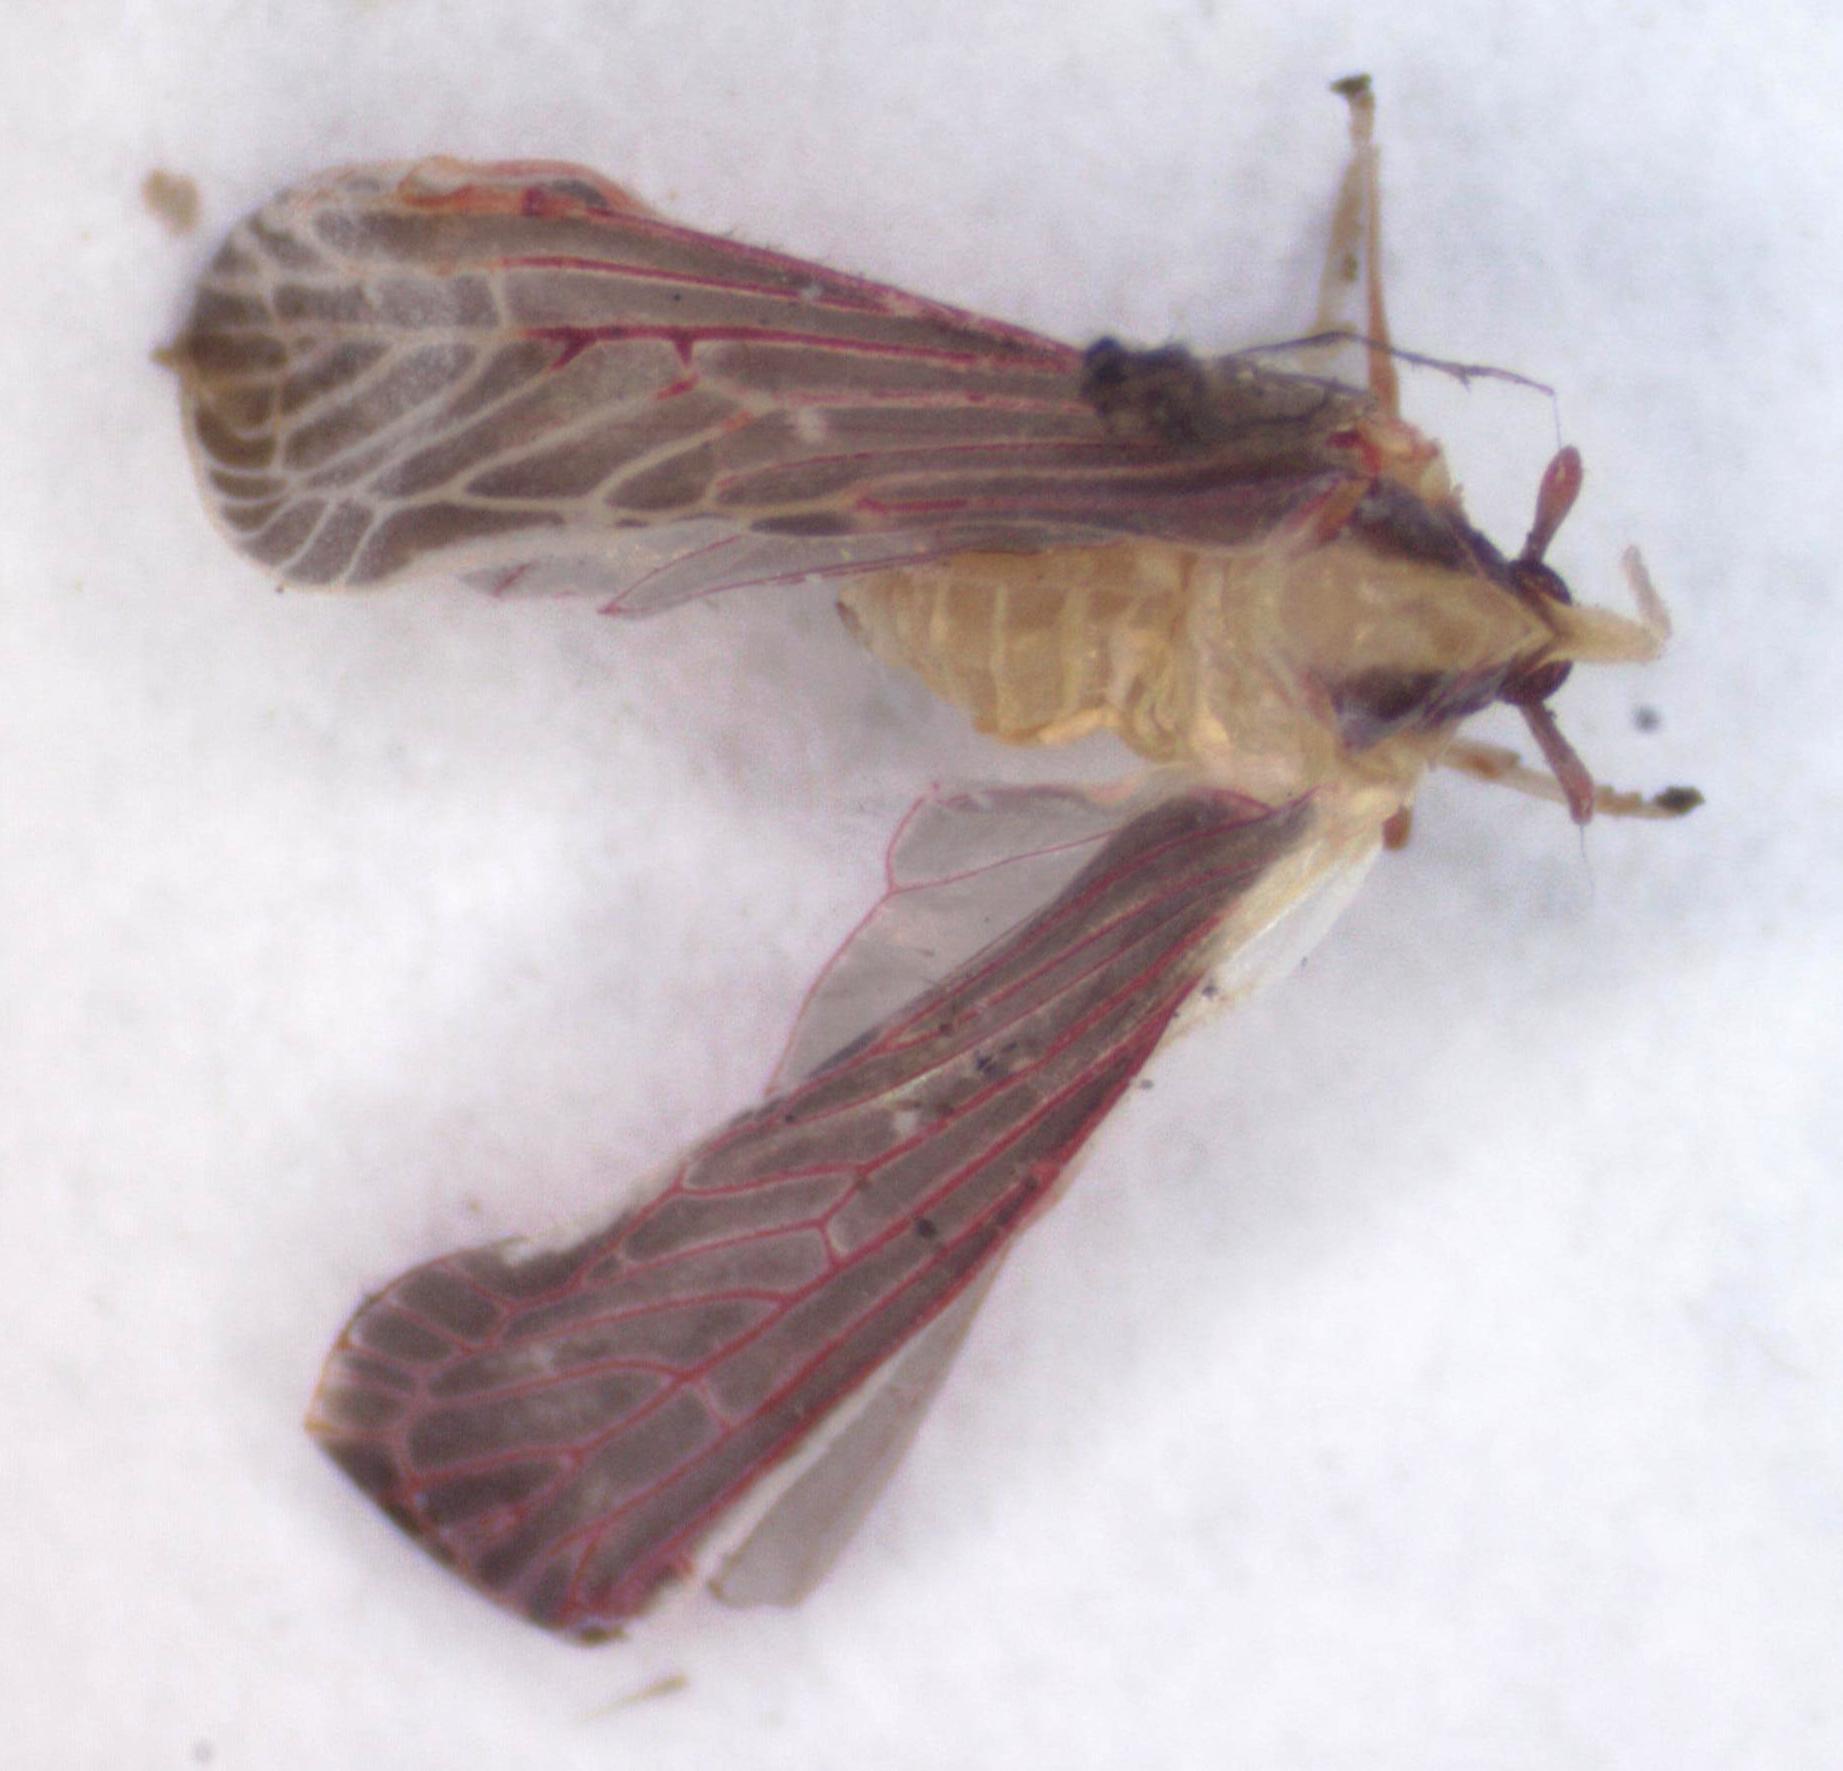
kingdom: Animalia
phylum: Arthropoda
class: Insecta
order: Hemiptera
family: Derbidae
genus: Anotia
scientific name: Anotia firebugia
